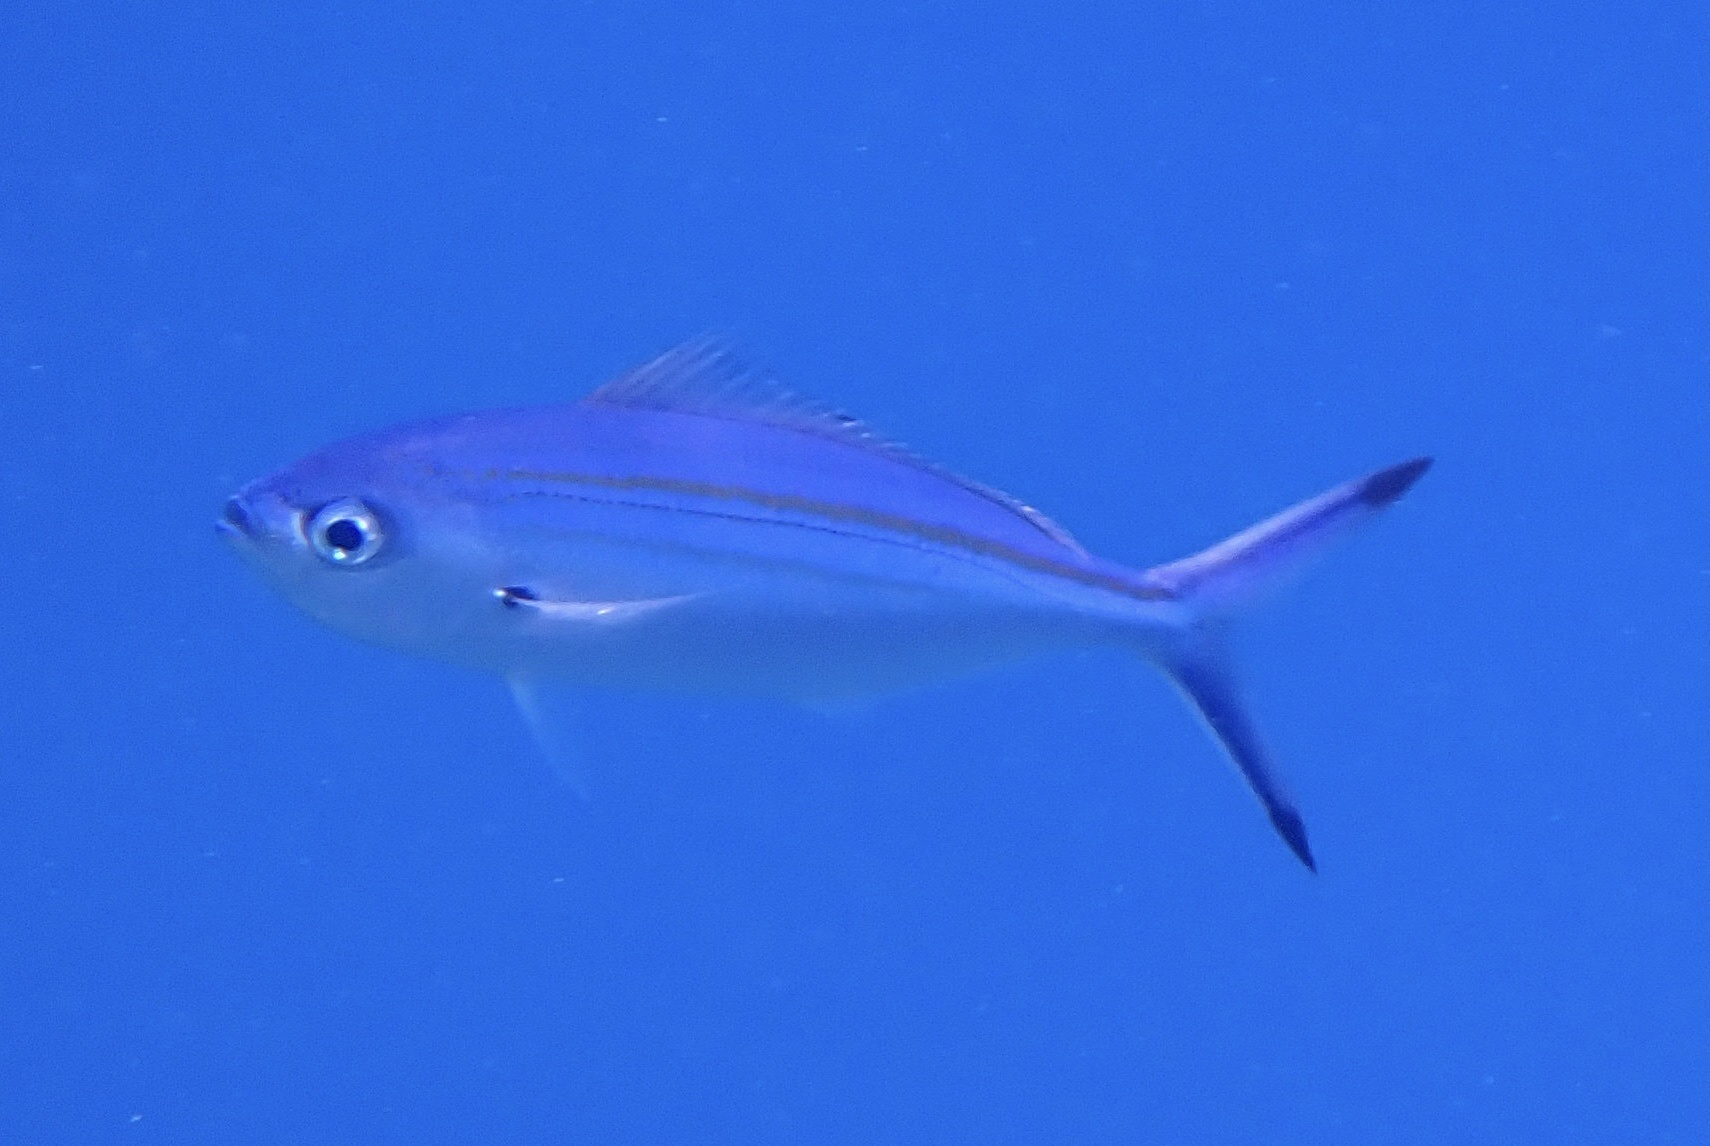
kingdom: Animalia
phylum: Chordata
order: Perciformes
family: Caesionidae
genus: Caesio
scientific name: Caesio varilineata
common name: Variable-lined fusilier
